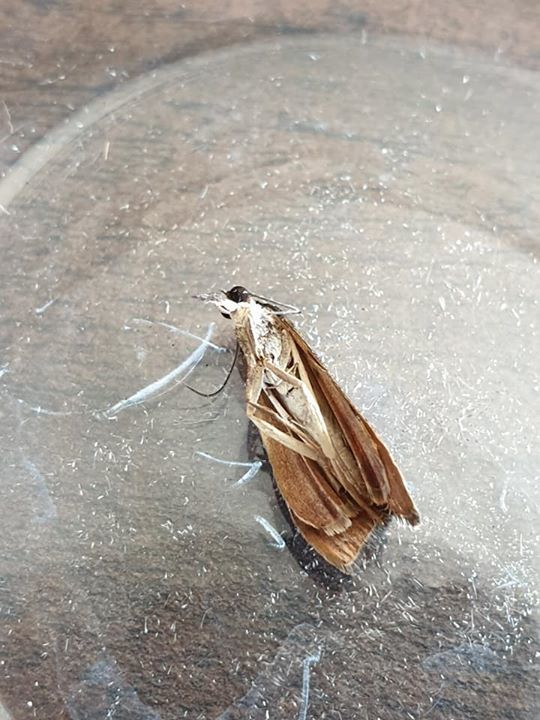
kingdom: Animalia
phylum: Arthropoda
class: Insecta
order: Lepidoptera
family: Crambidae
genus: Achyra
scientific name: Achyra affinitalis
